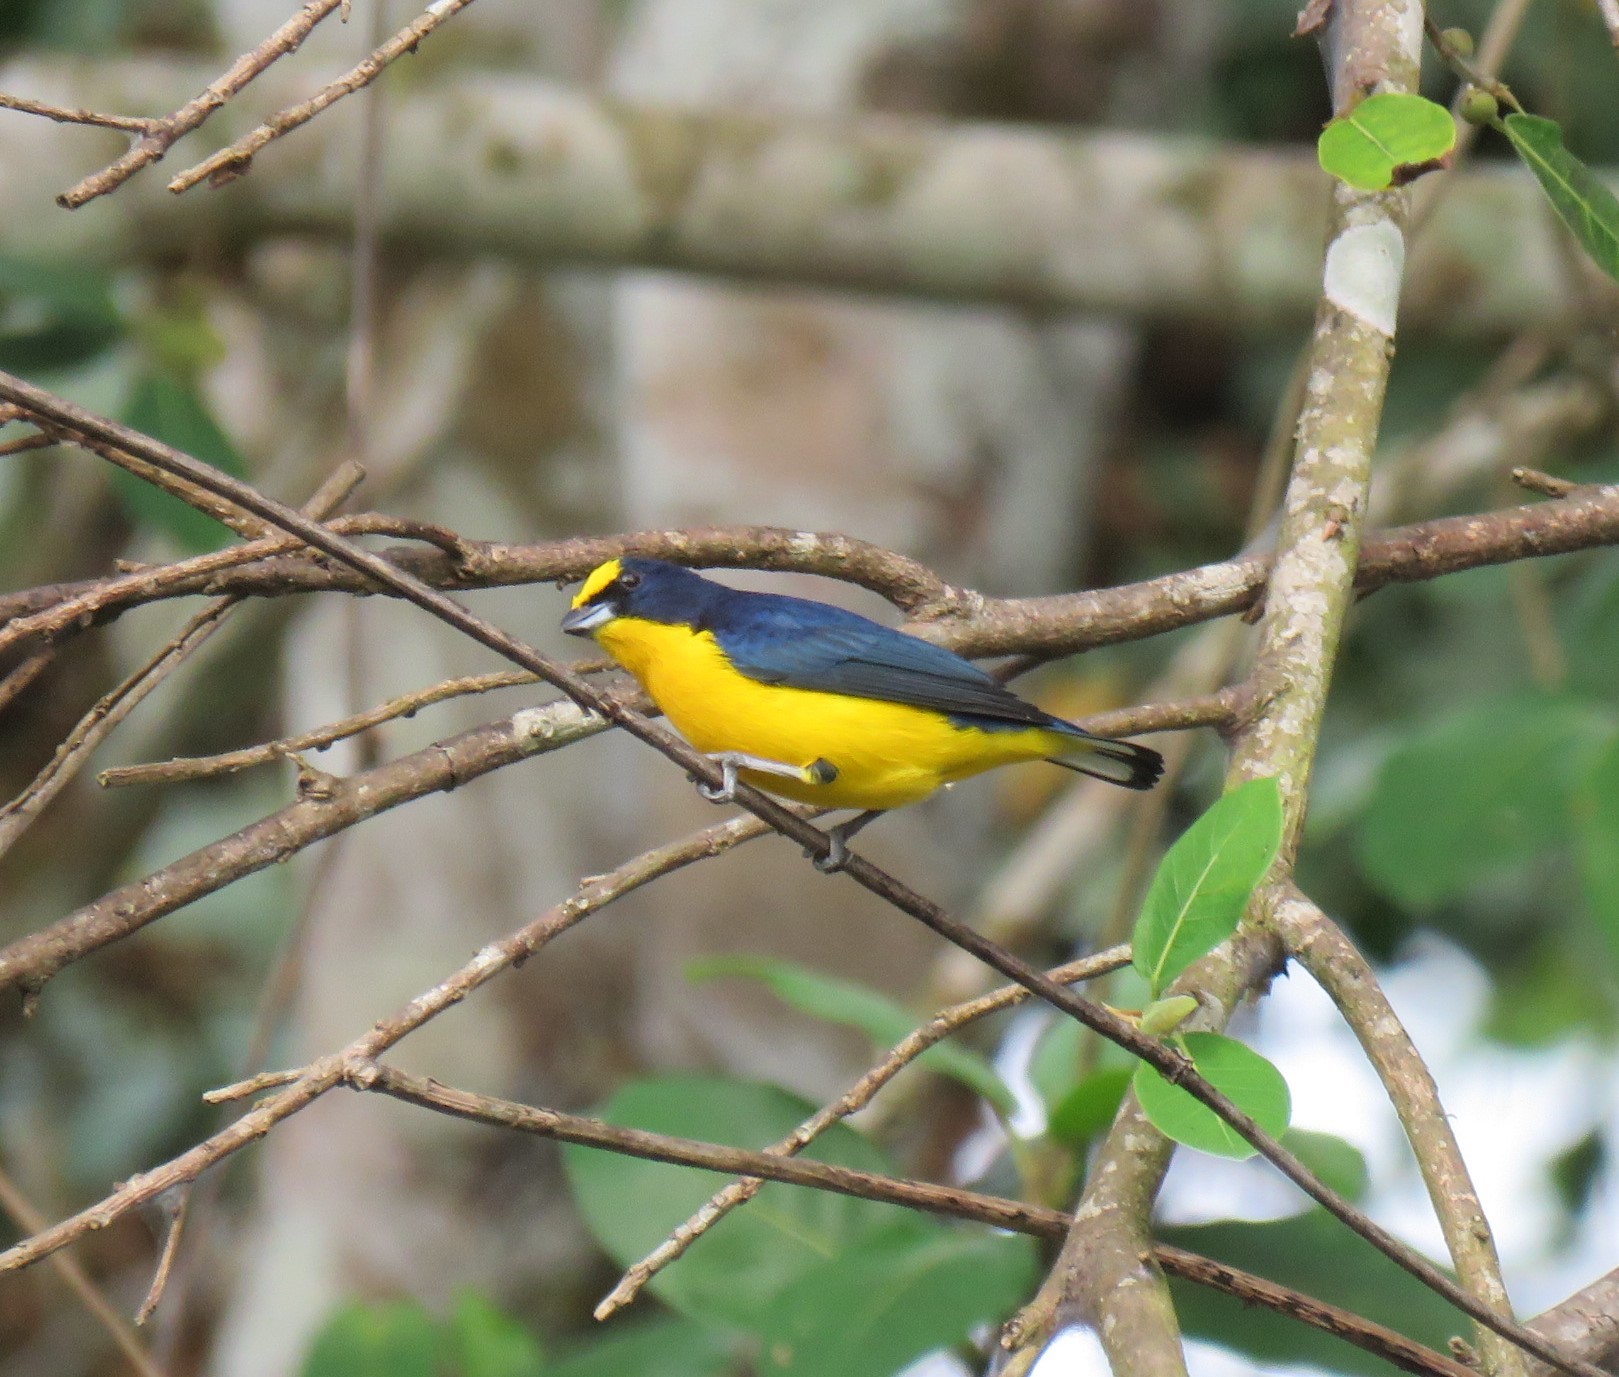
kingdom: Animalia
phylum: Chordata
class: Aves
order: Passeriformes
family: Fringillidae
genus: Euphonia
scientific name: Euphonia laniirostris
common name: Thick-billed euphonia
